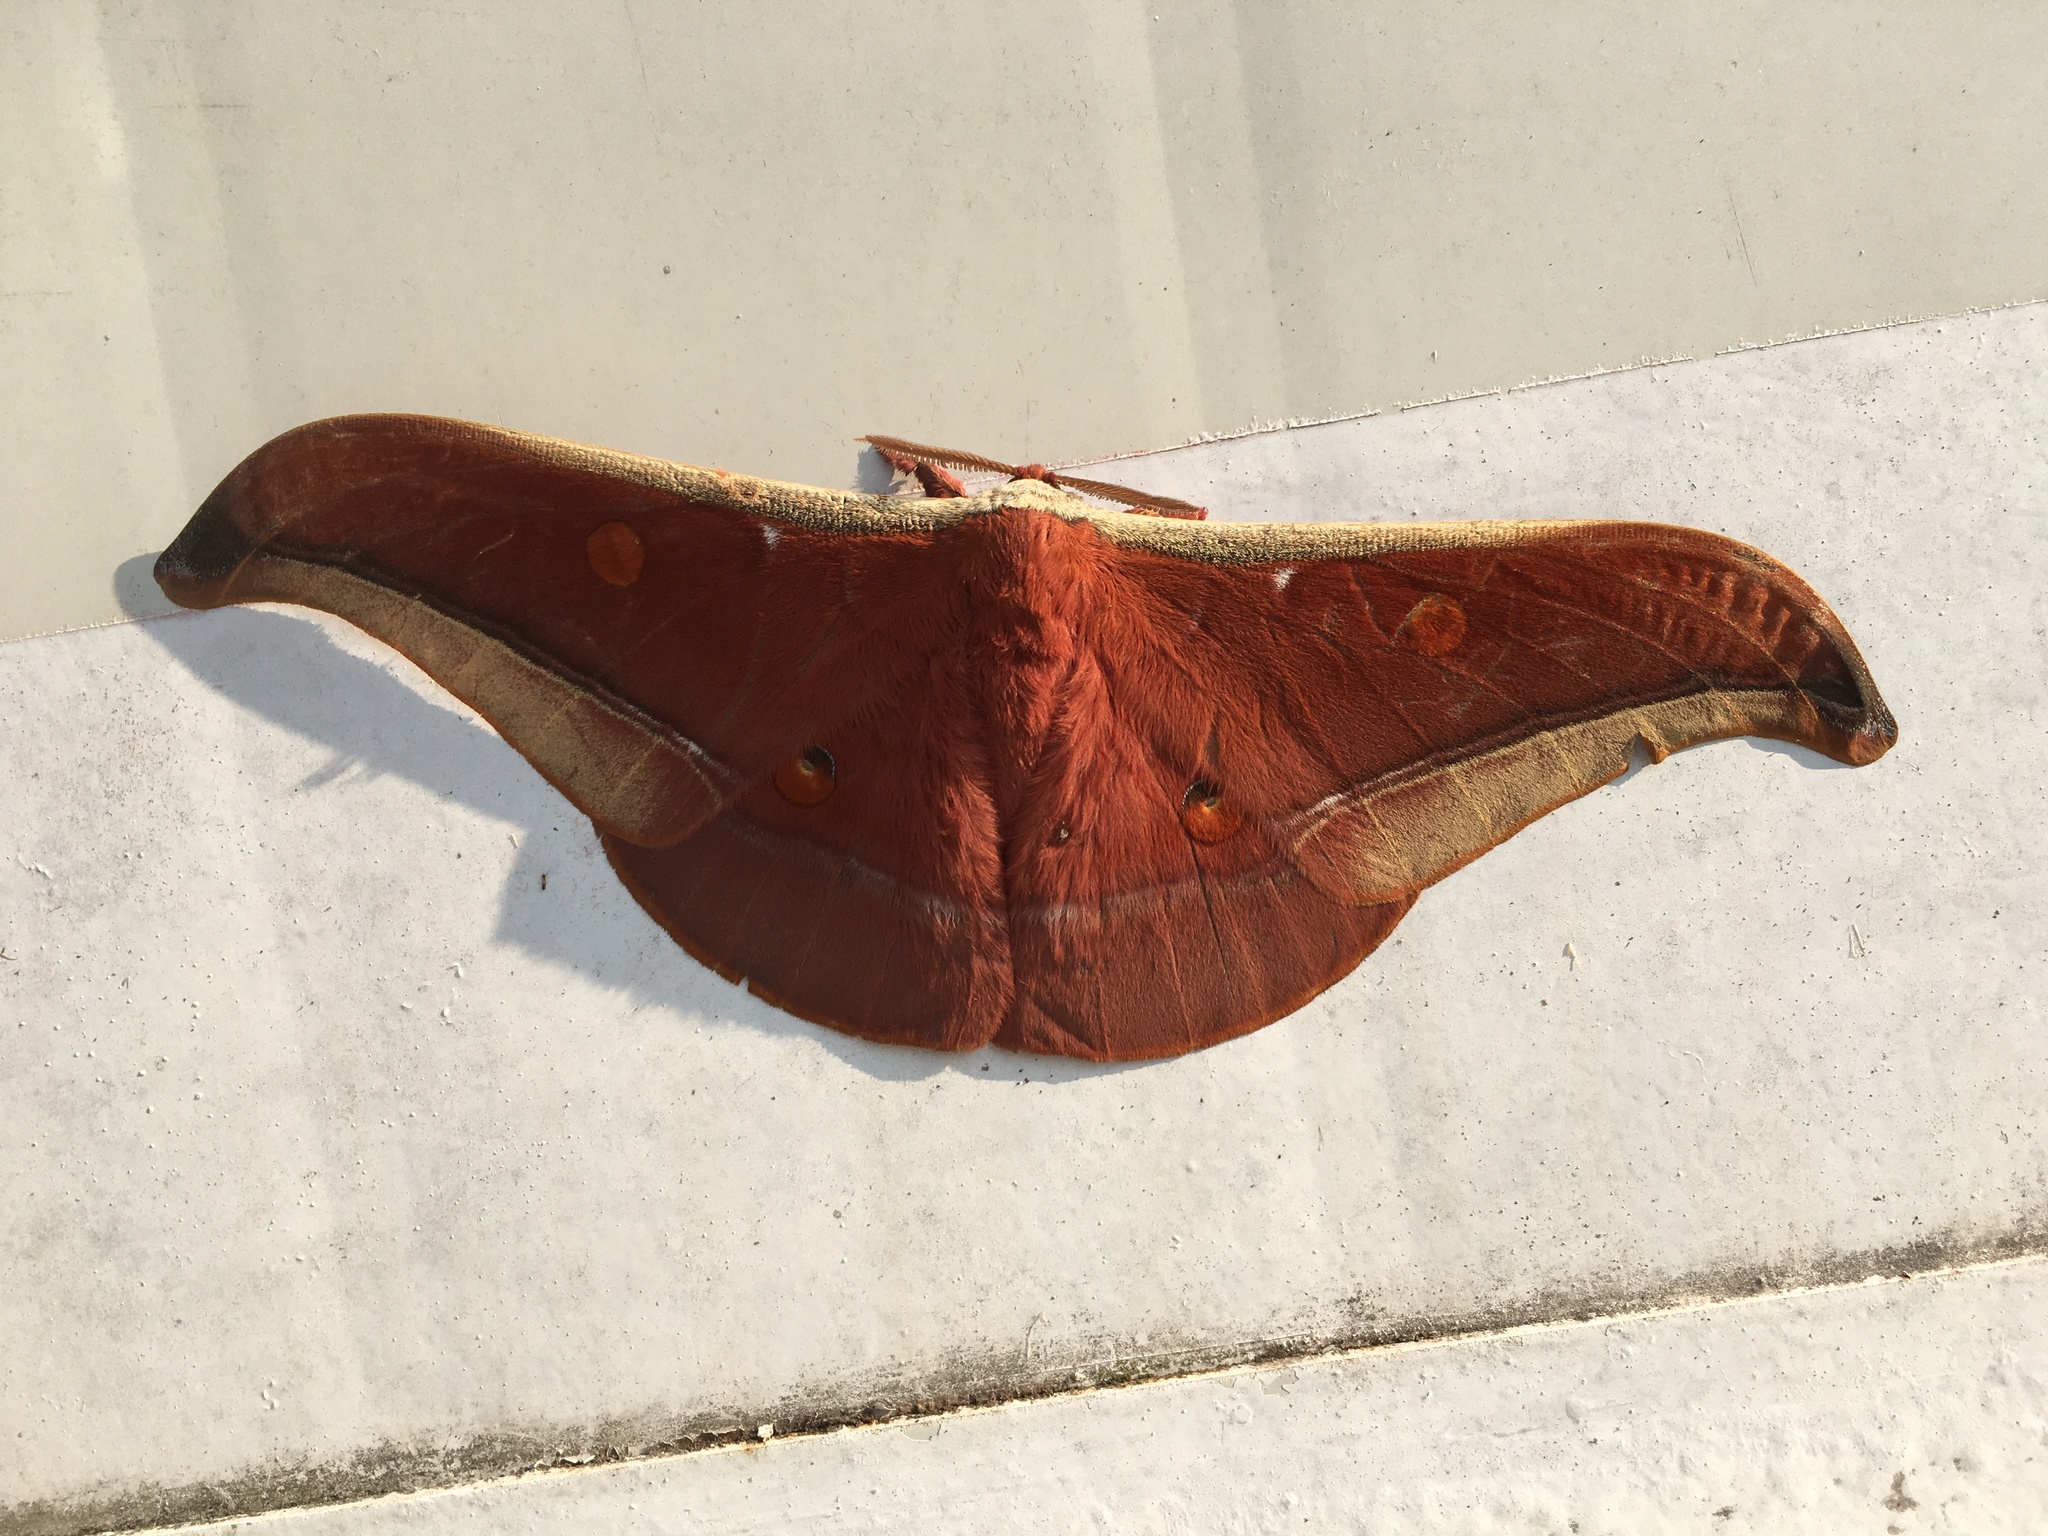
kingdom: Animalia
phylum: Arthropoda
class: Insecta
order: Lepidoptera
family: Saturniidae
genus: Antheraea
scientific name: Antheraea assamensis
